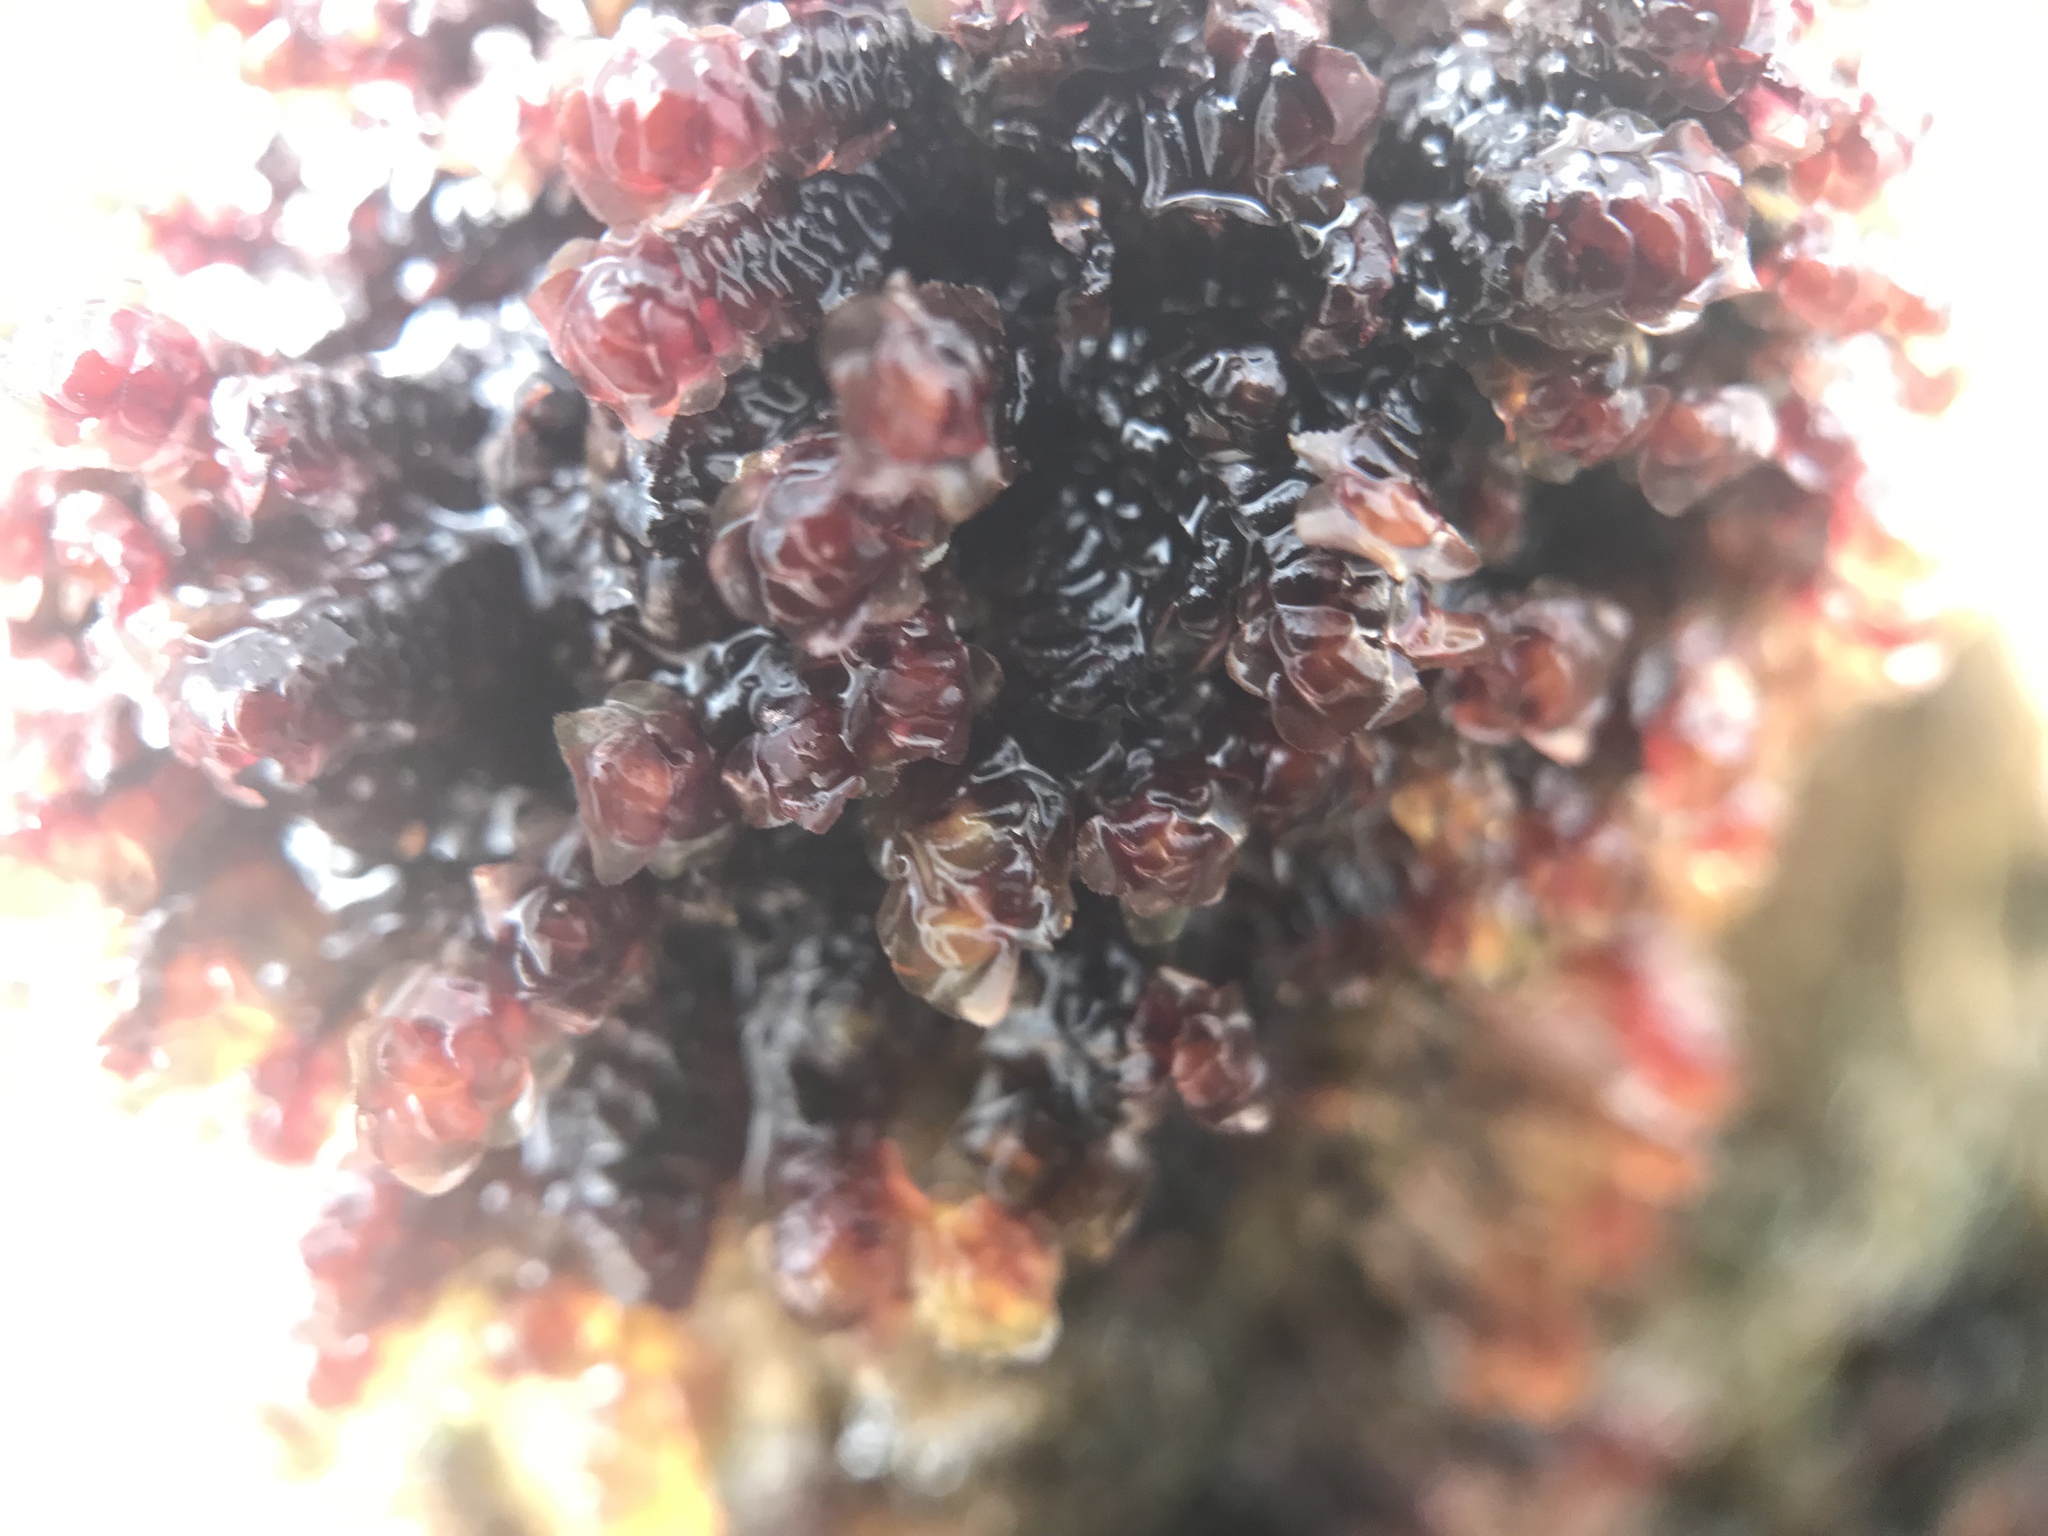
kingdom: Plantae
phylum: Marchantiophyta
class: Jungermanniopsida
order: Jungermanniales
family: Scapaniaceae
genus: Scapania
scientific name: Scapania undulata
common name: Water earwort
